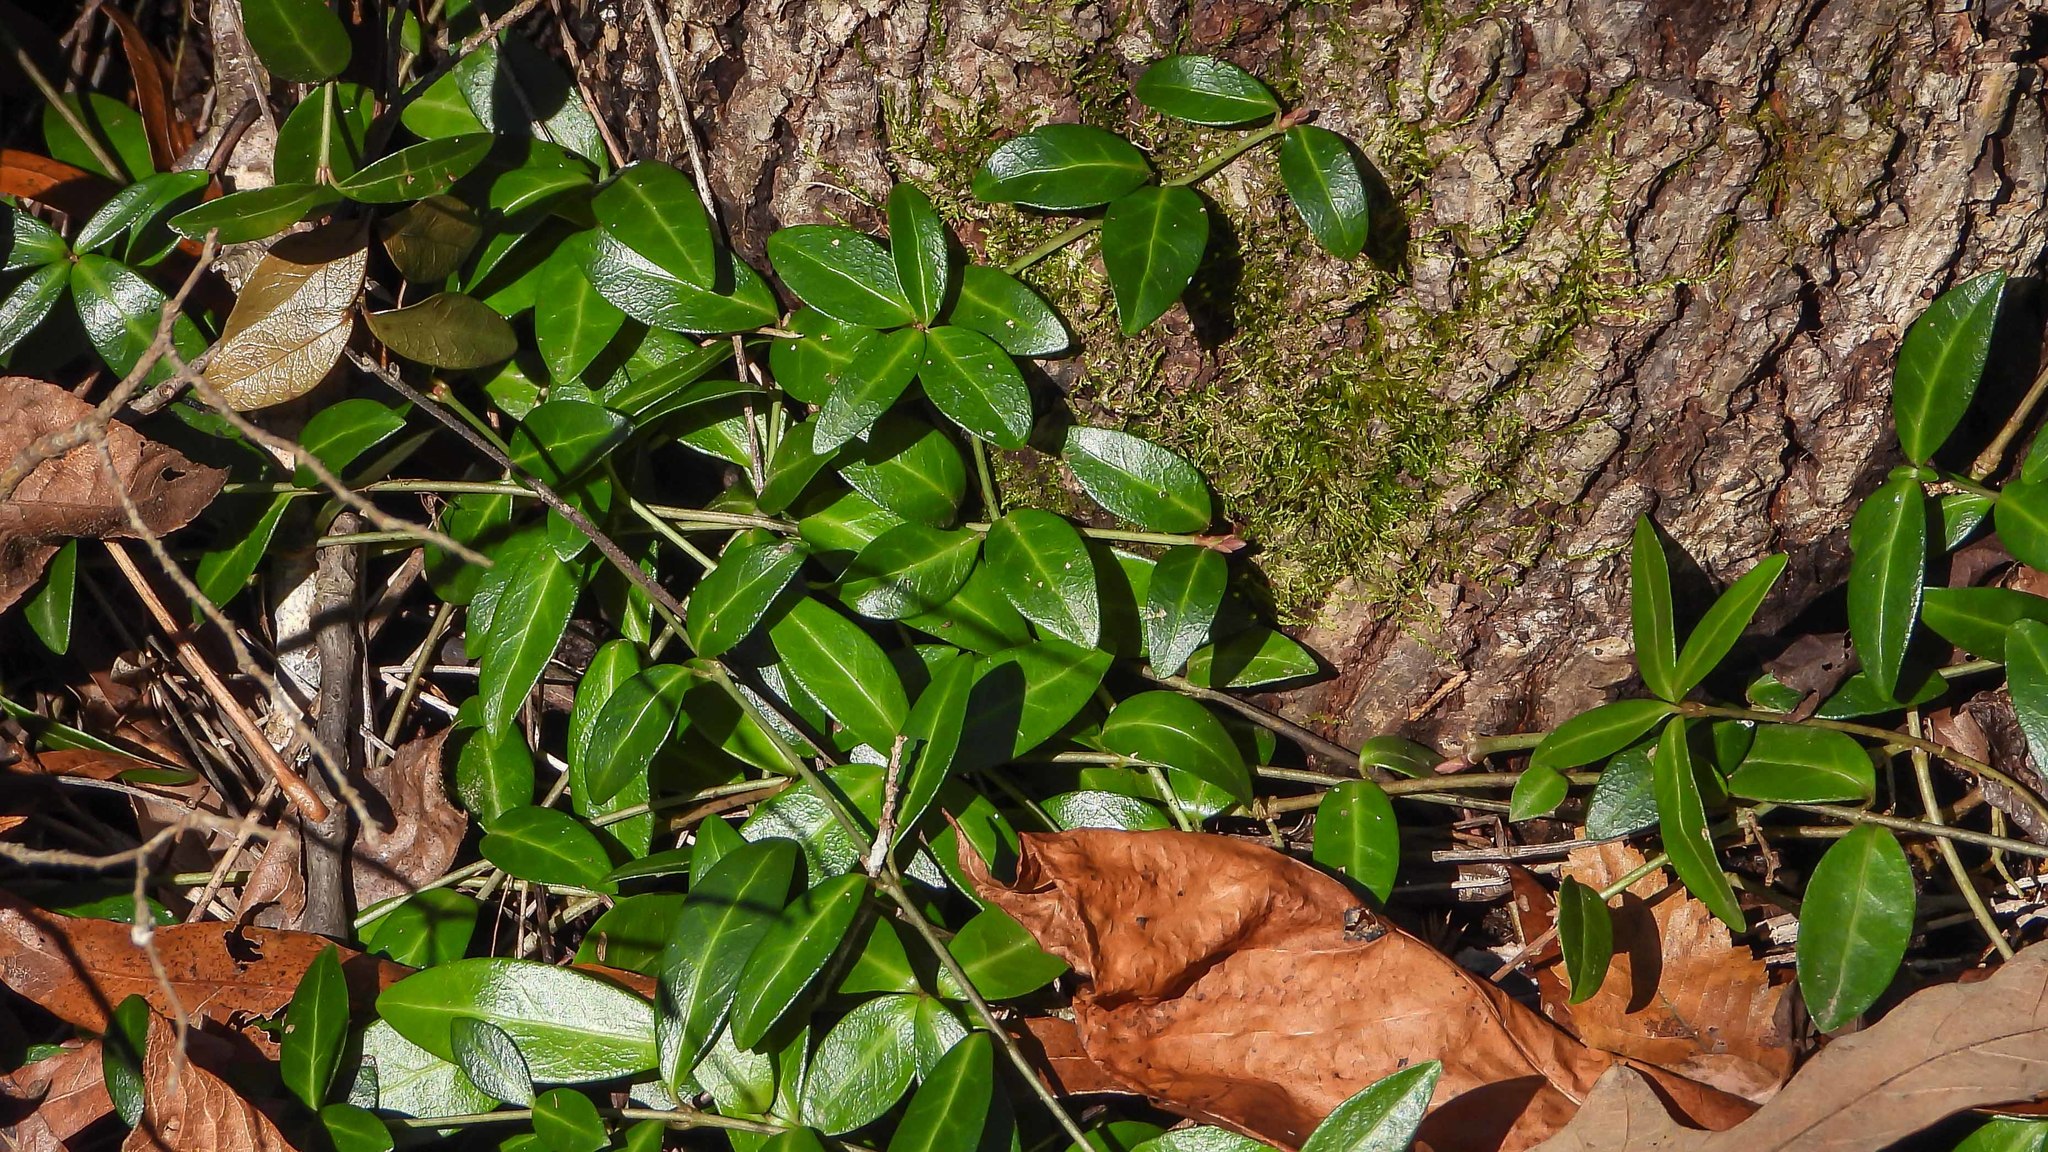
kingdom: Plantae
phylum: Tracheophyta
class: Magnoliopsida
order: Gentianales
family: Apocynaceae
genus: Vinca
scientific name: Vinca minor
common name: Lesser periwinkle
